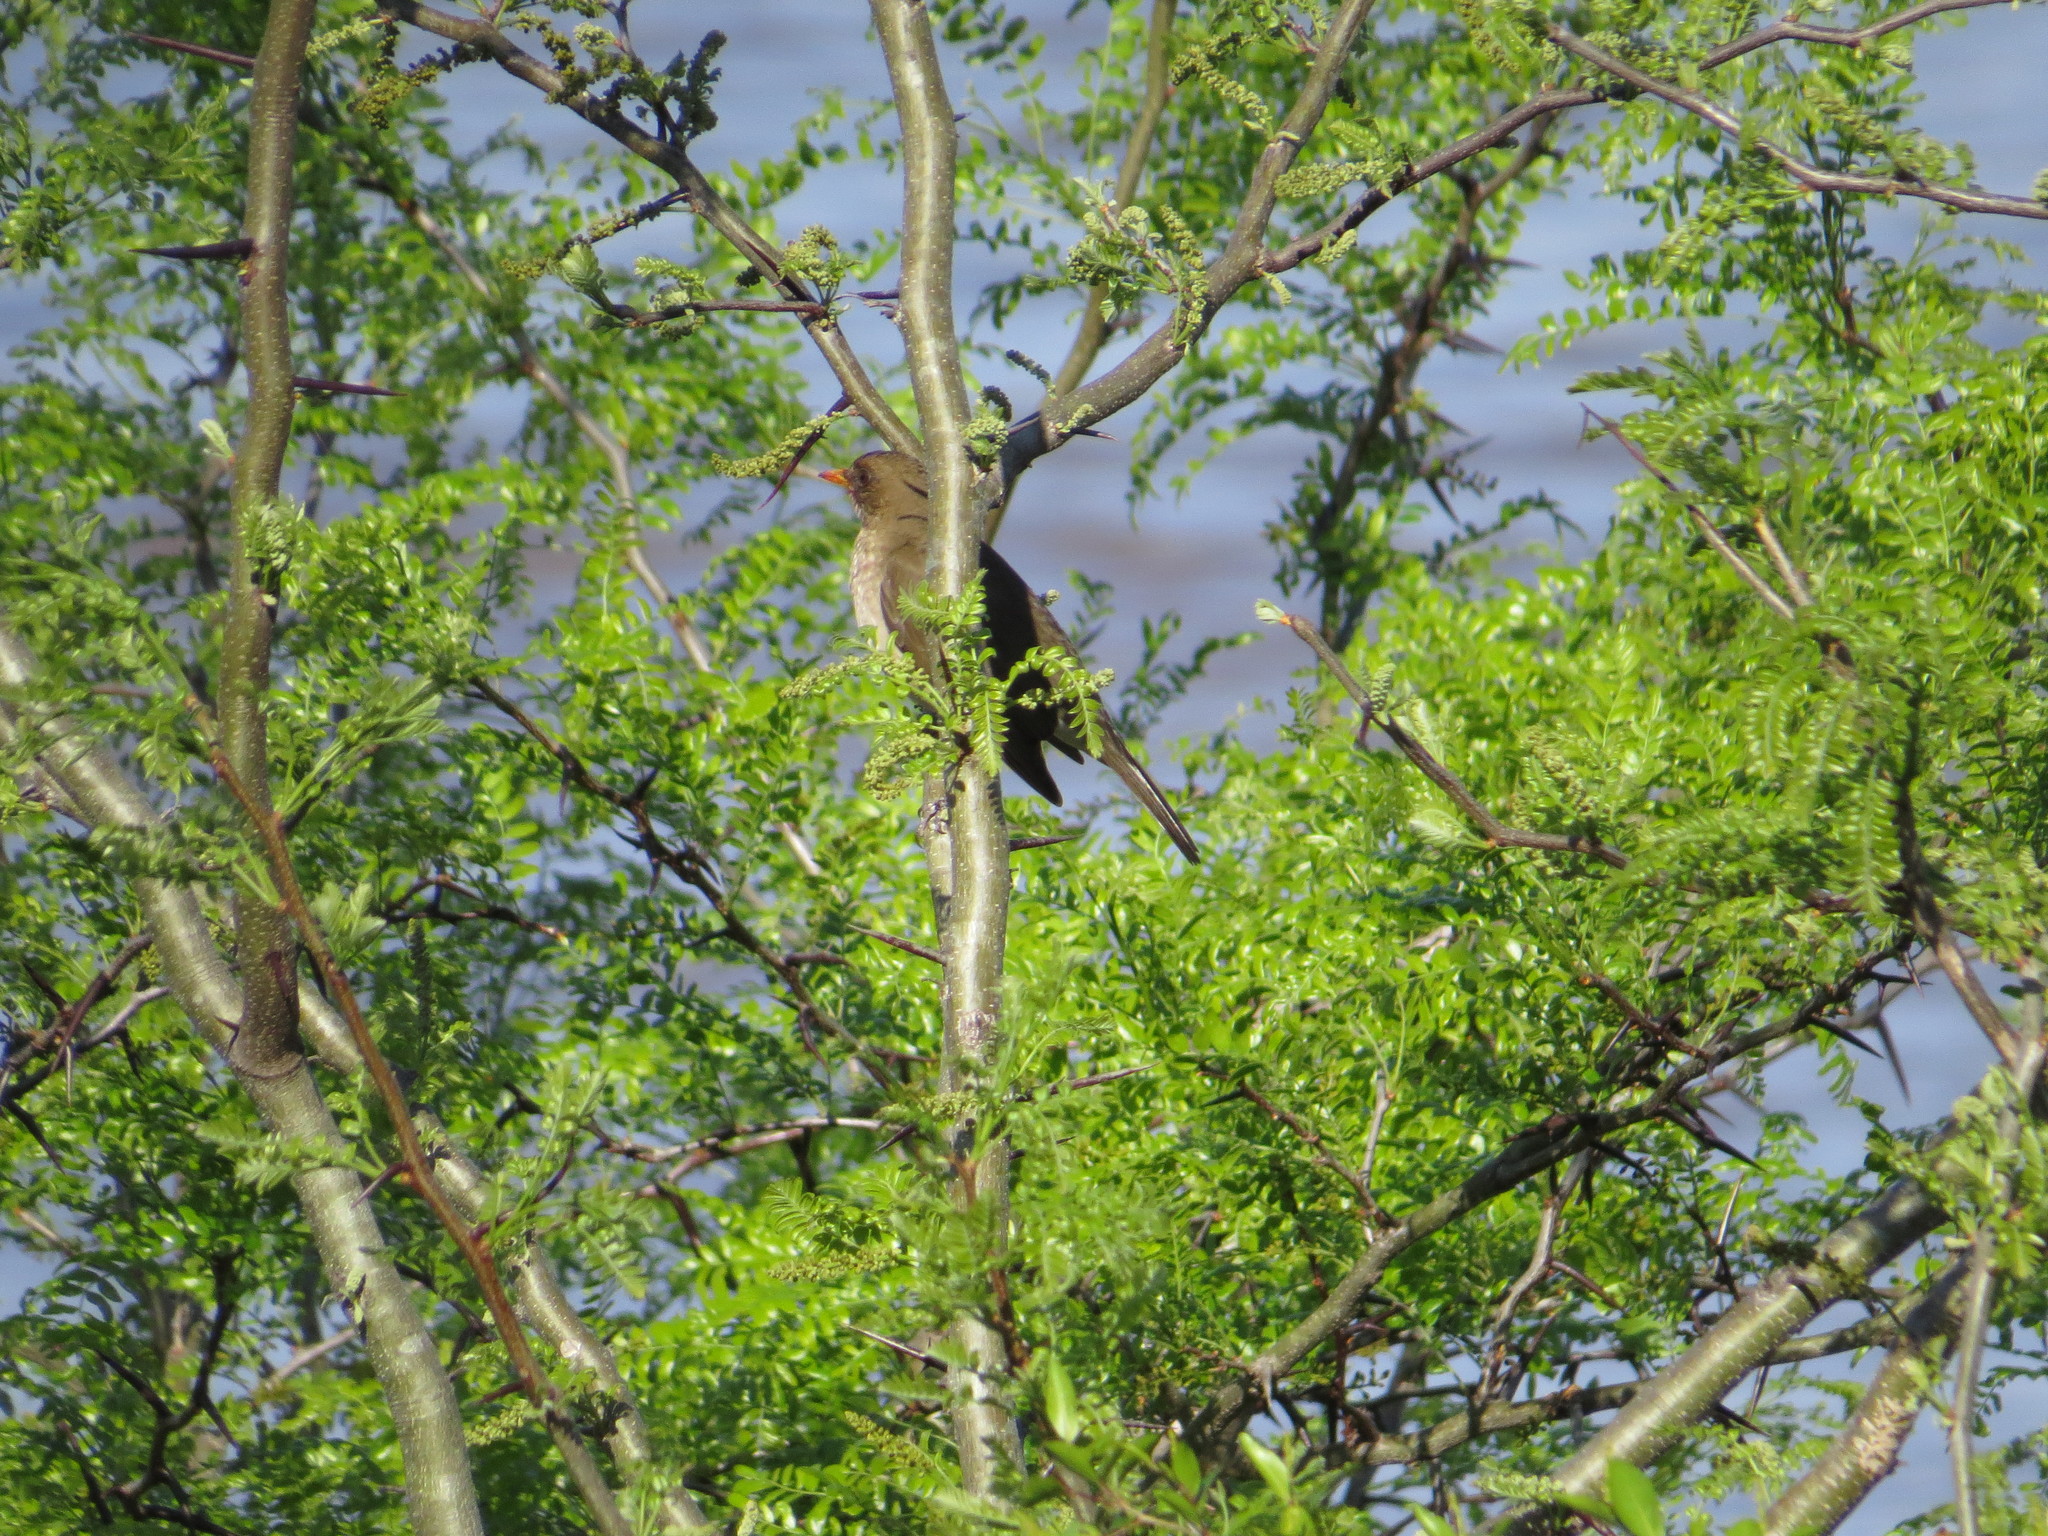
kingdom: Animalia
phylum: Chordata
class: Aves
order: Passeriformes
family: Turdidae
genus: Turdus
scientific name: Turdus amaurochalinus
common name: Creamy-bellied thrush
